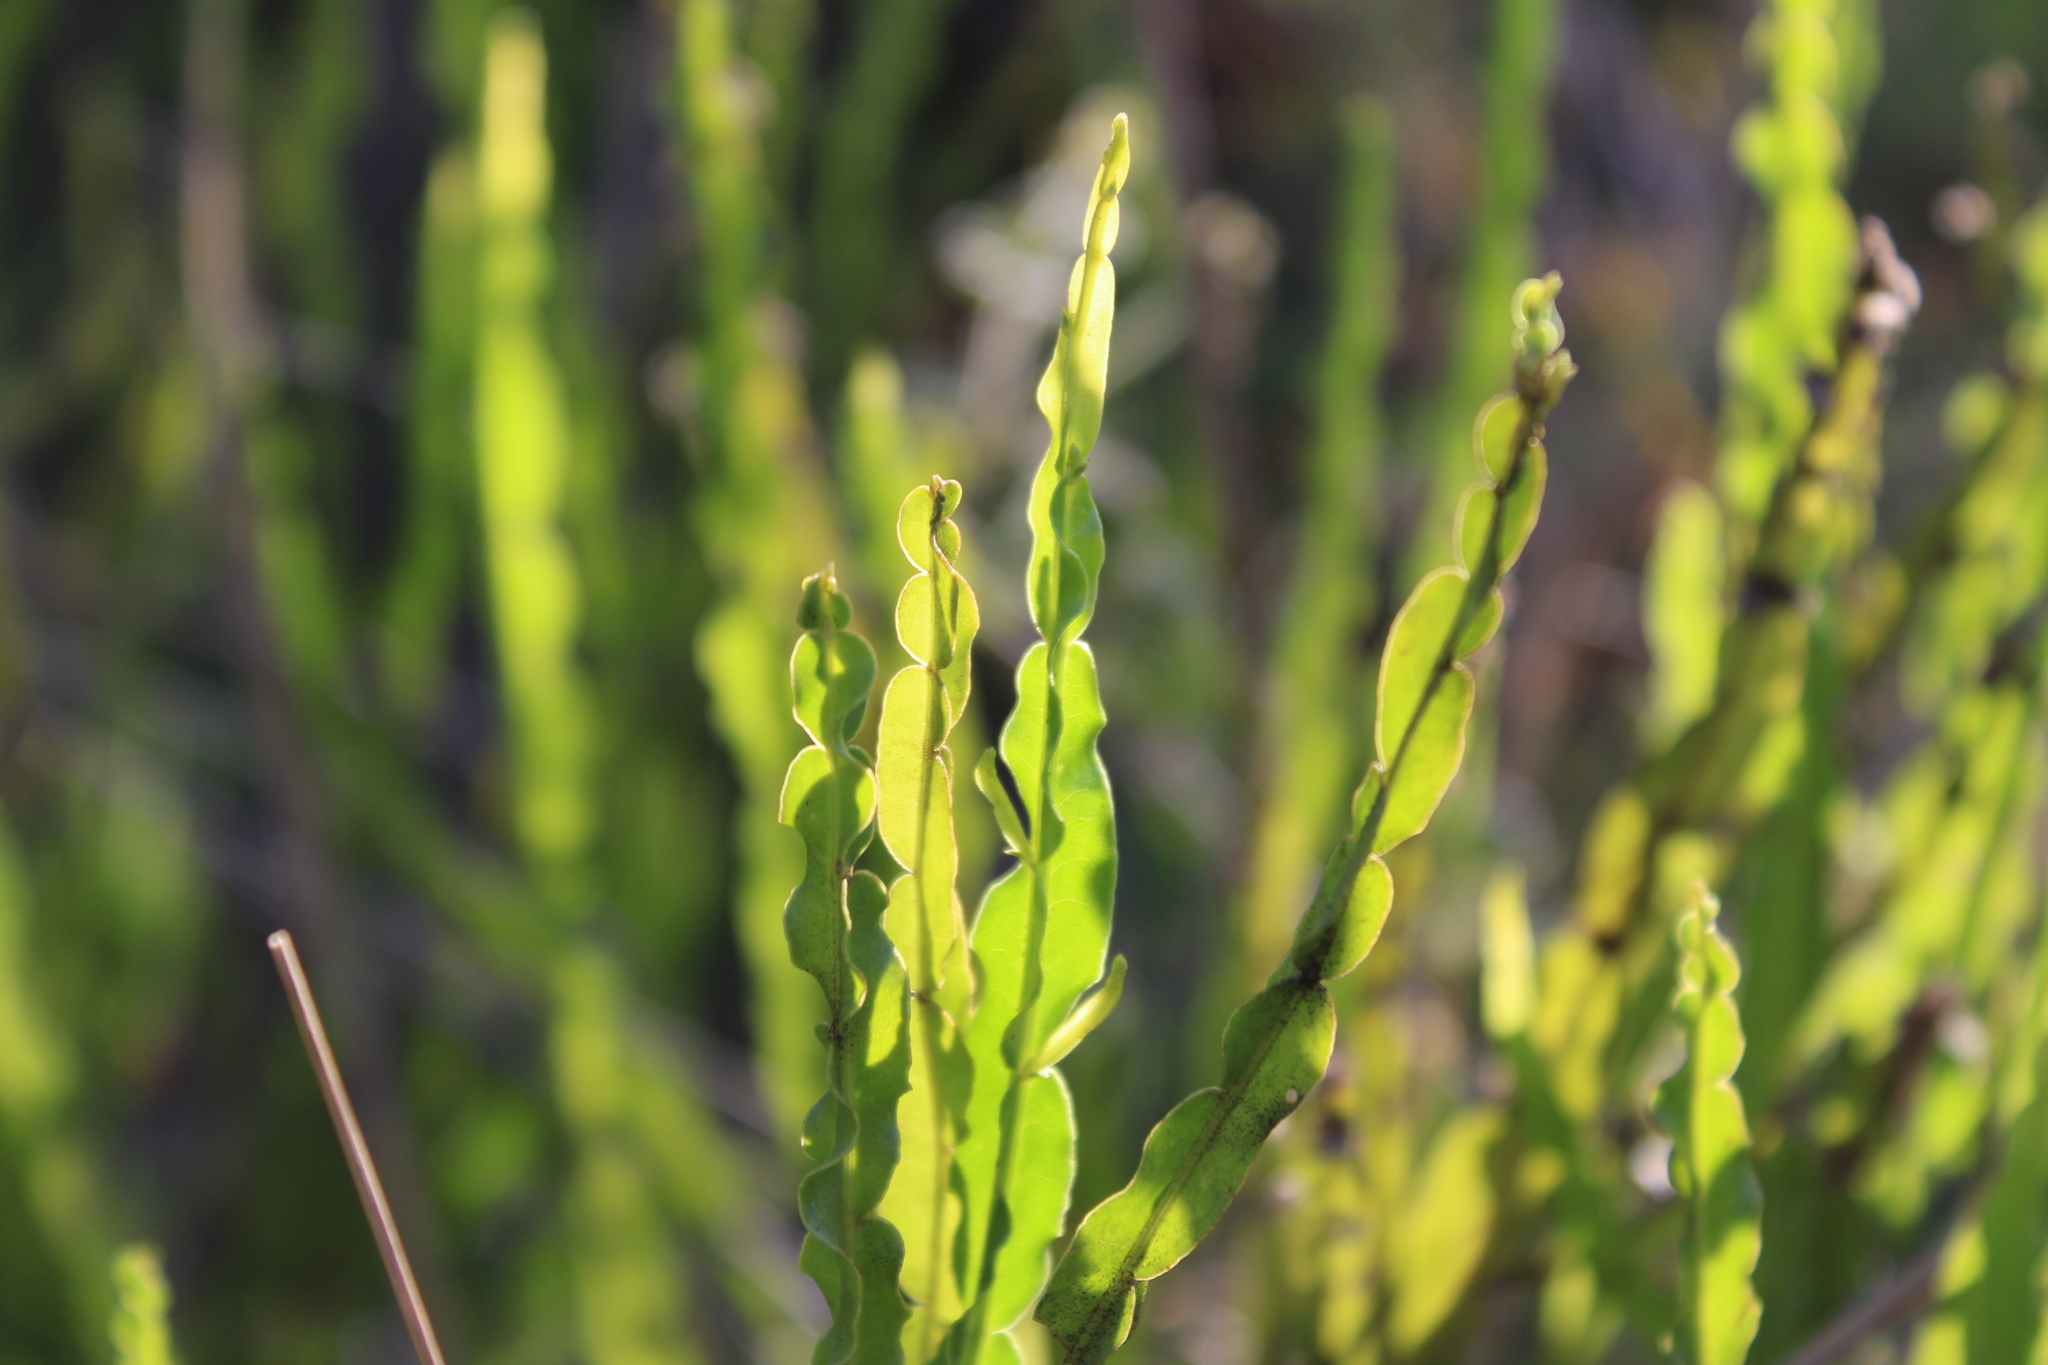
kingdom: Plantae
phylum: Tracheophyta
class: Magnoliopsida
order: Asterales
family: Asteraceae
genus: Baccharis
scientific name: Baccharis trimera
